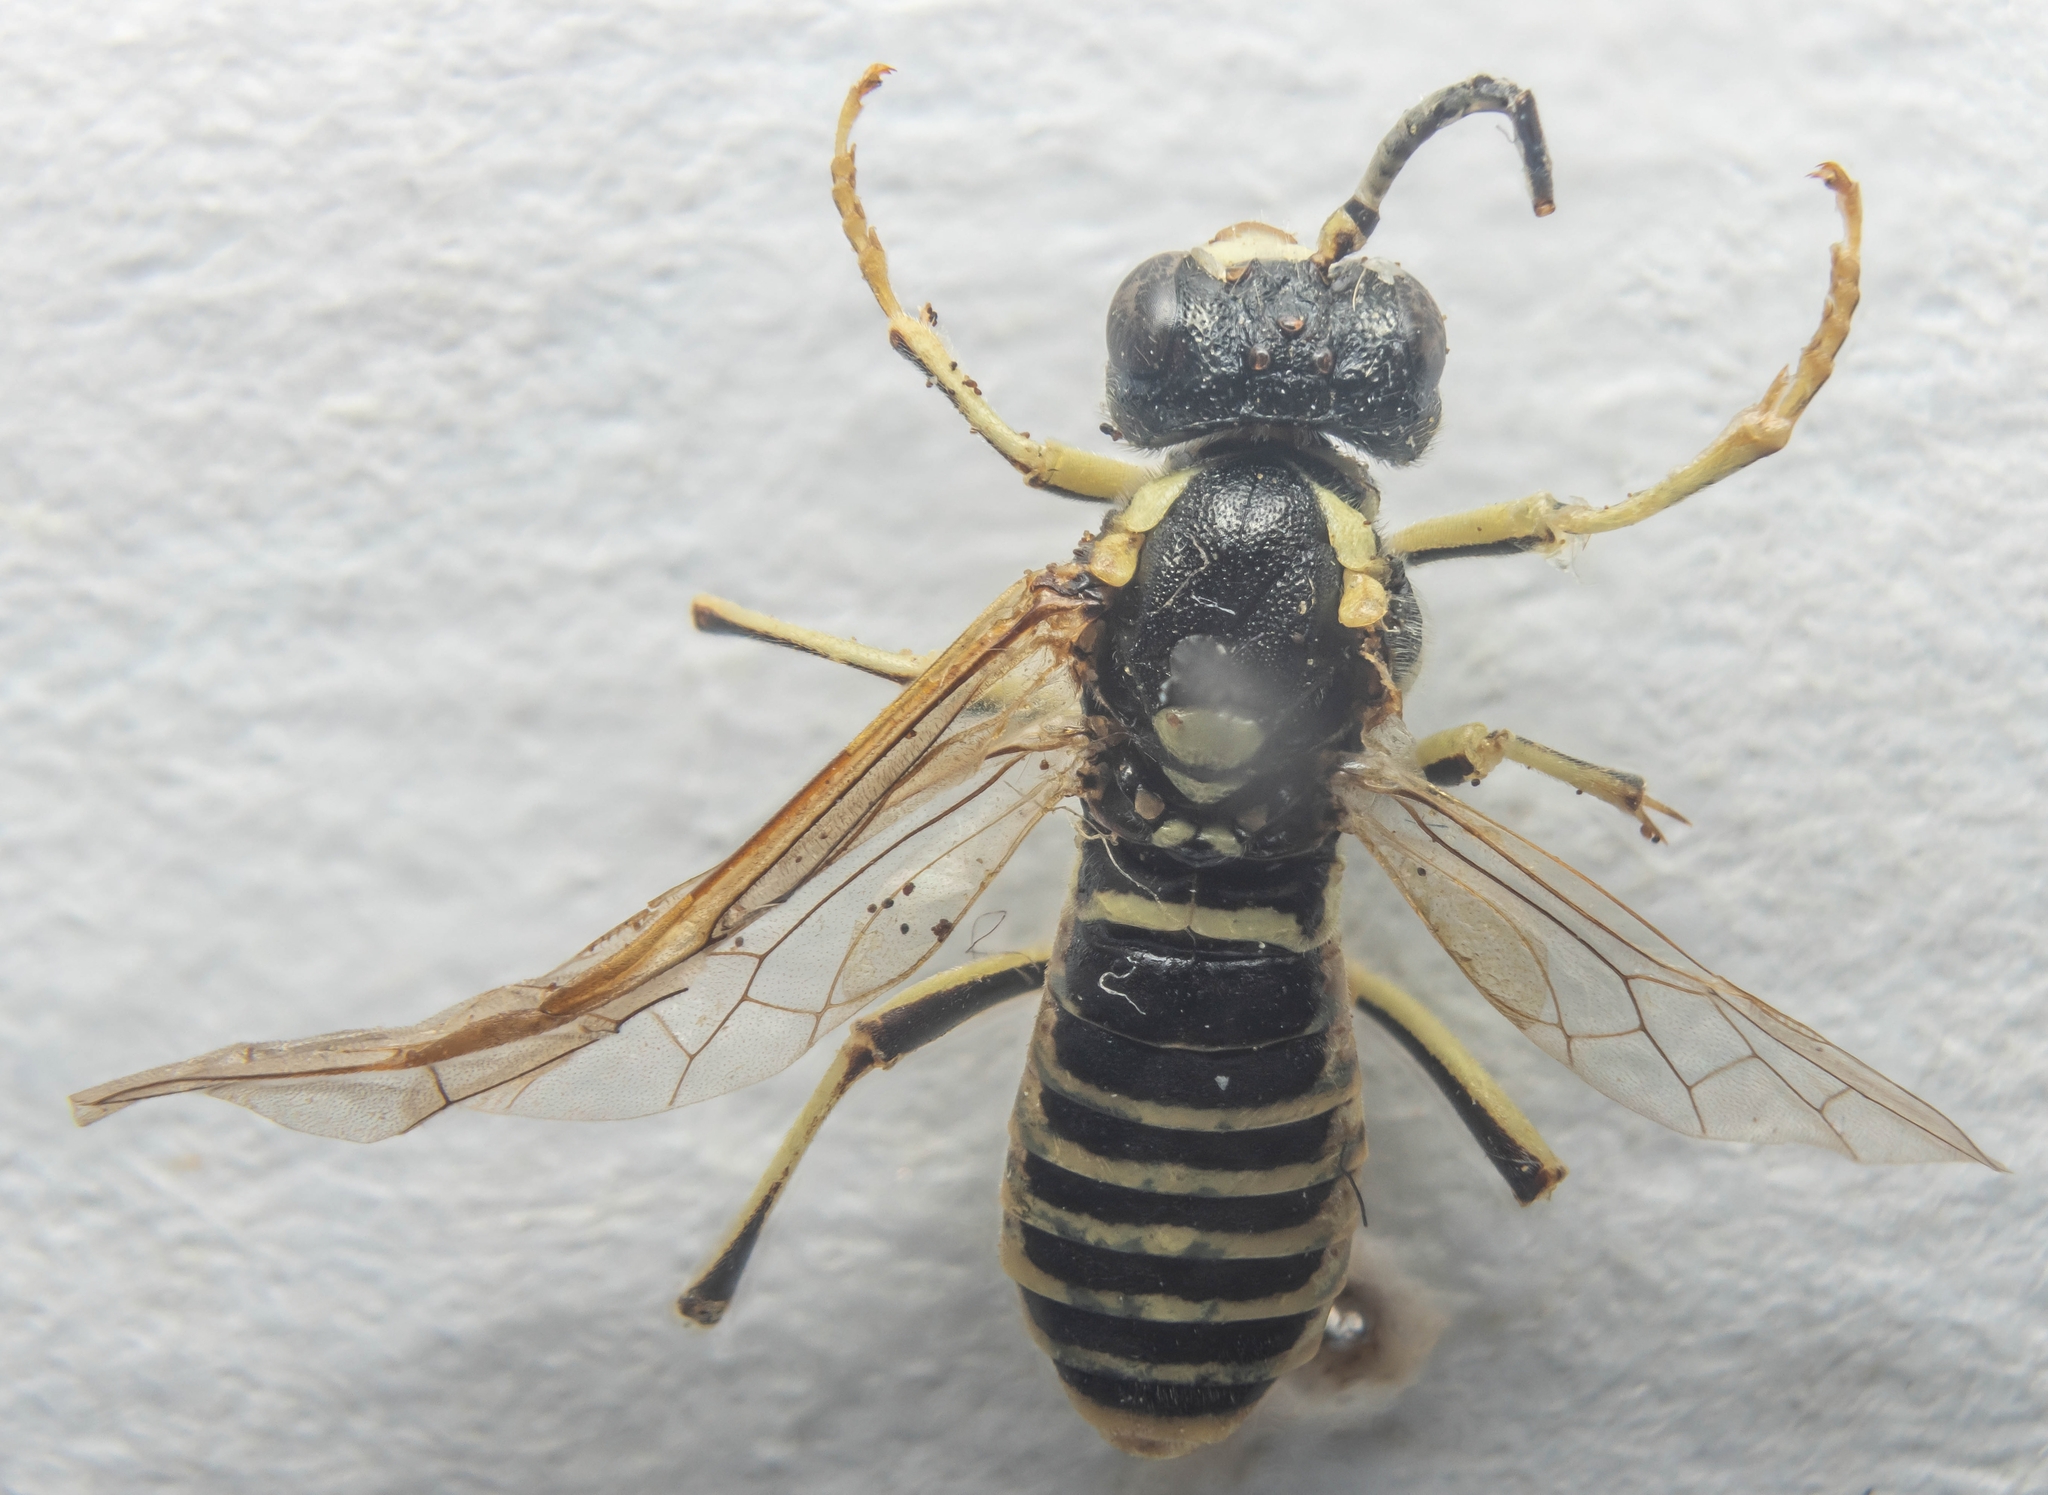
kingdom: Animalia
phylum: Arthropoda
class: Insecta
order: Hymenoptera
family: Tenthredinidae
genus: Tenthredo
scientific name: Tenthredo arcuata
